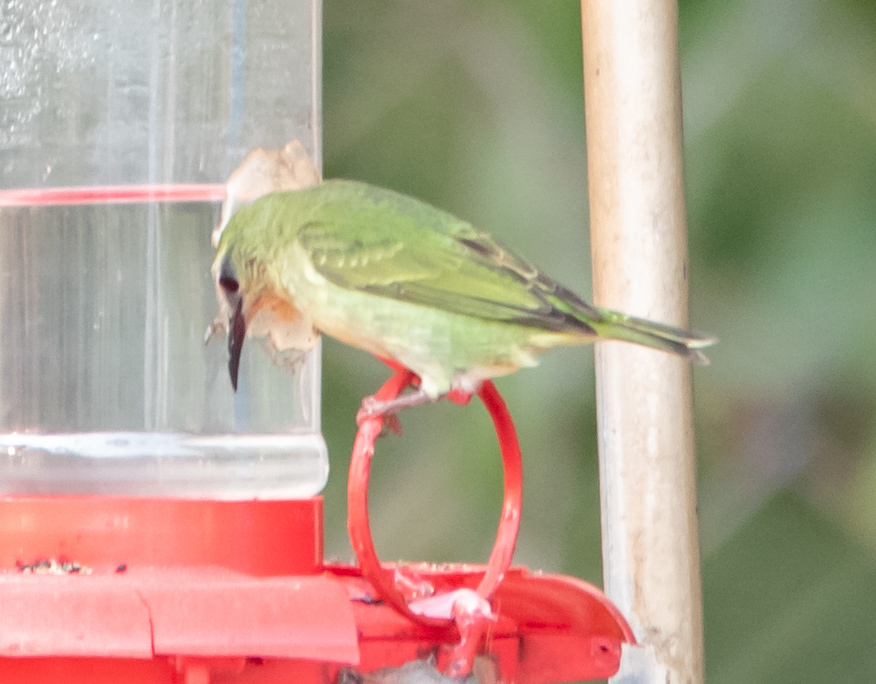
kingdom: Animalia
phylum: Chordata
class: Aves
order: Passeriformes
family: Thraupidae
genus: Cyanerpes
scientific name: Cyanerpes cyaneus
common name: Red-legged honeycreeper
